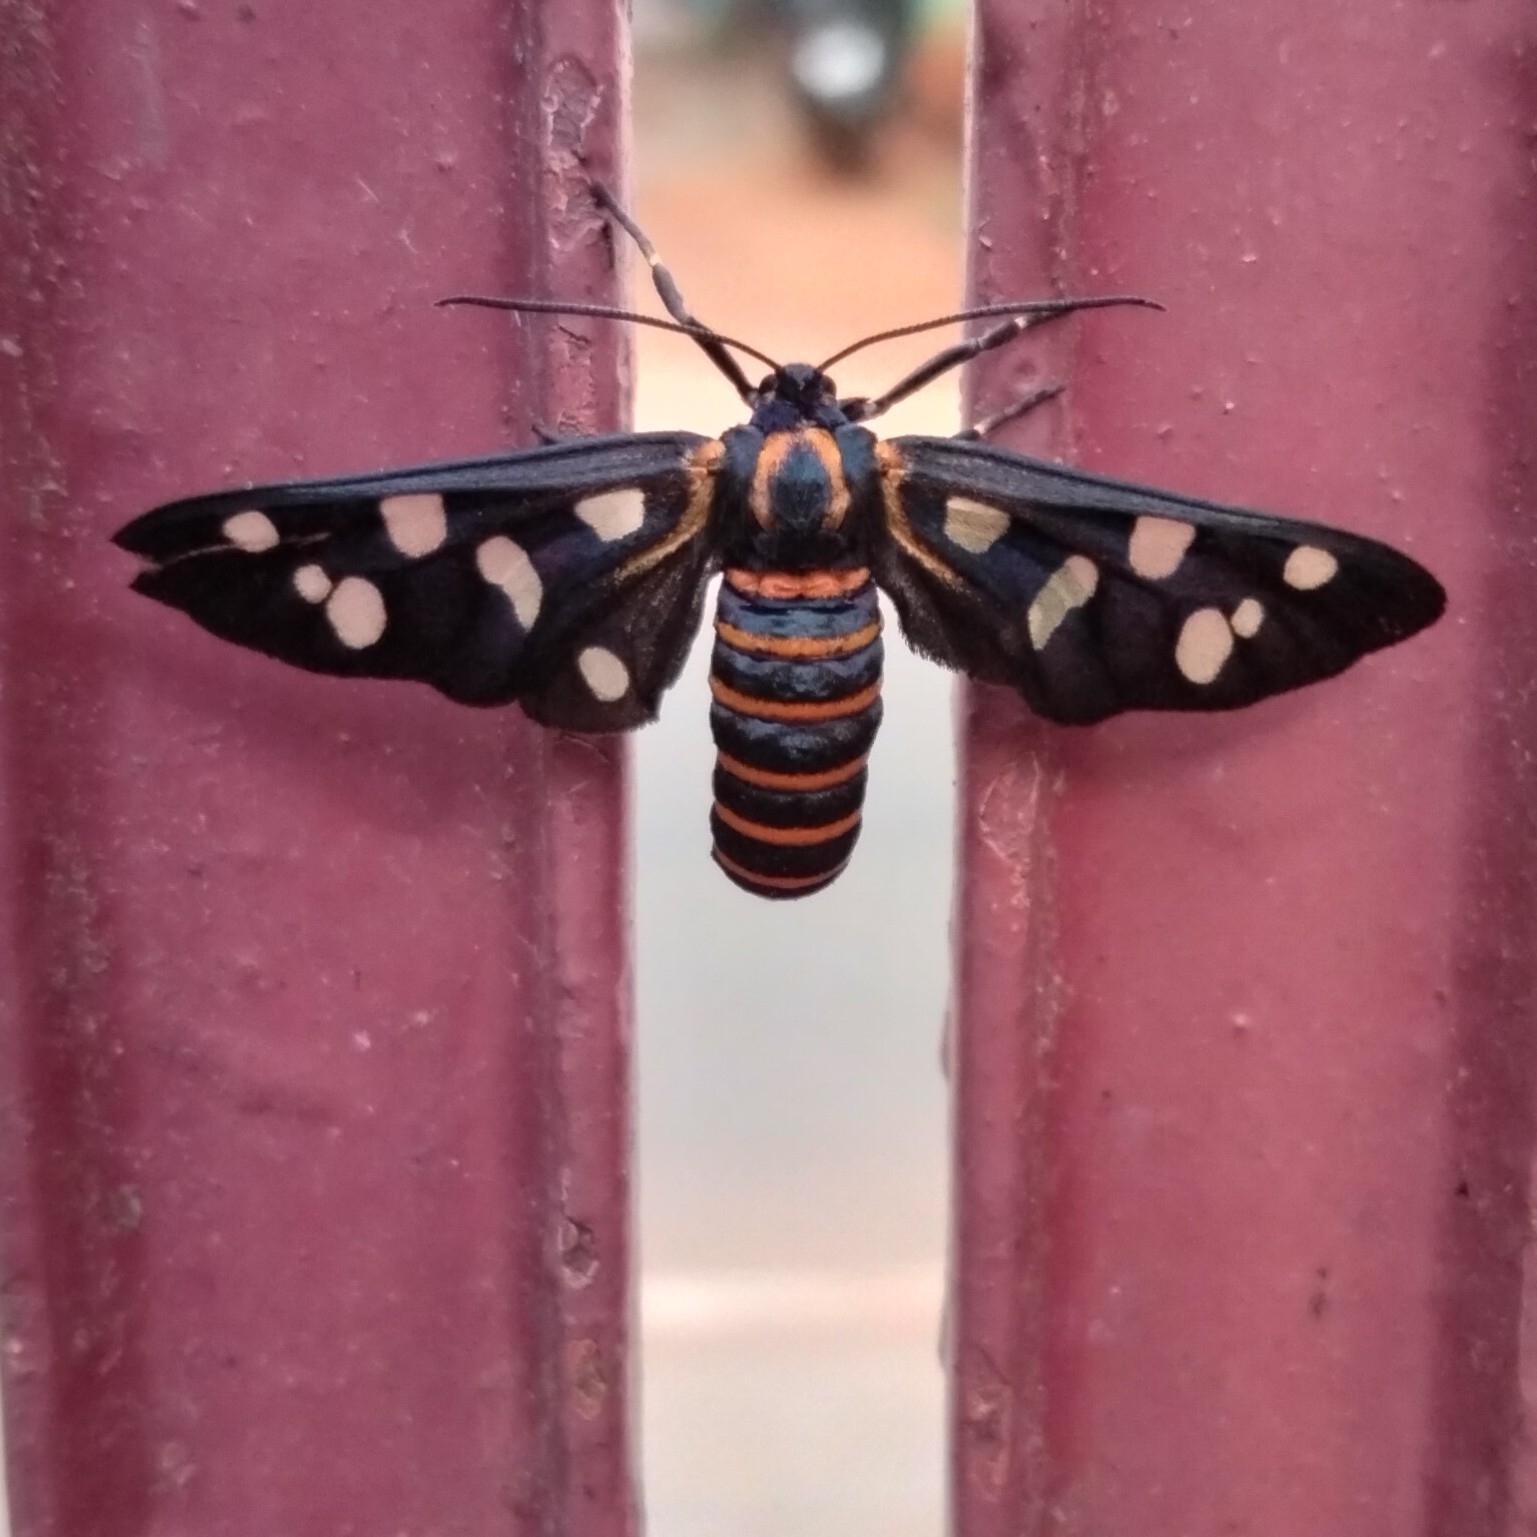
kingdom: Animalia
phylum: Arthropoda
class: Insecta
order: Lepidoptera
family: Erebidae
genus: Amata
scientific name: Amata passalis
